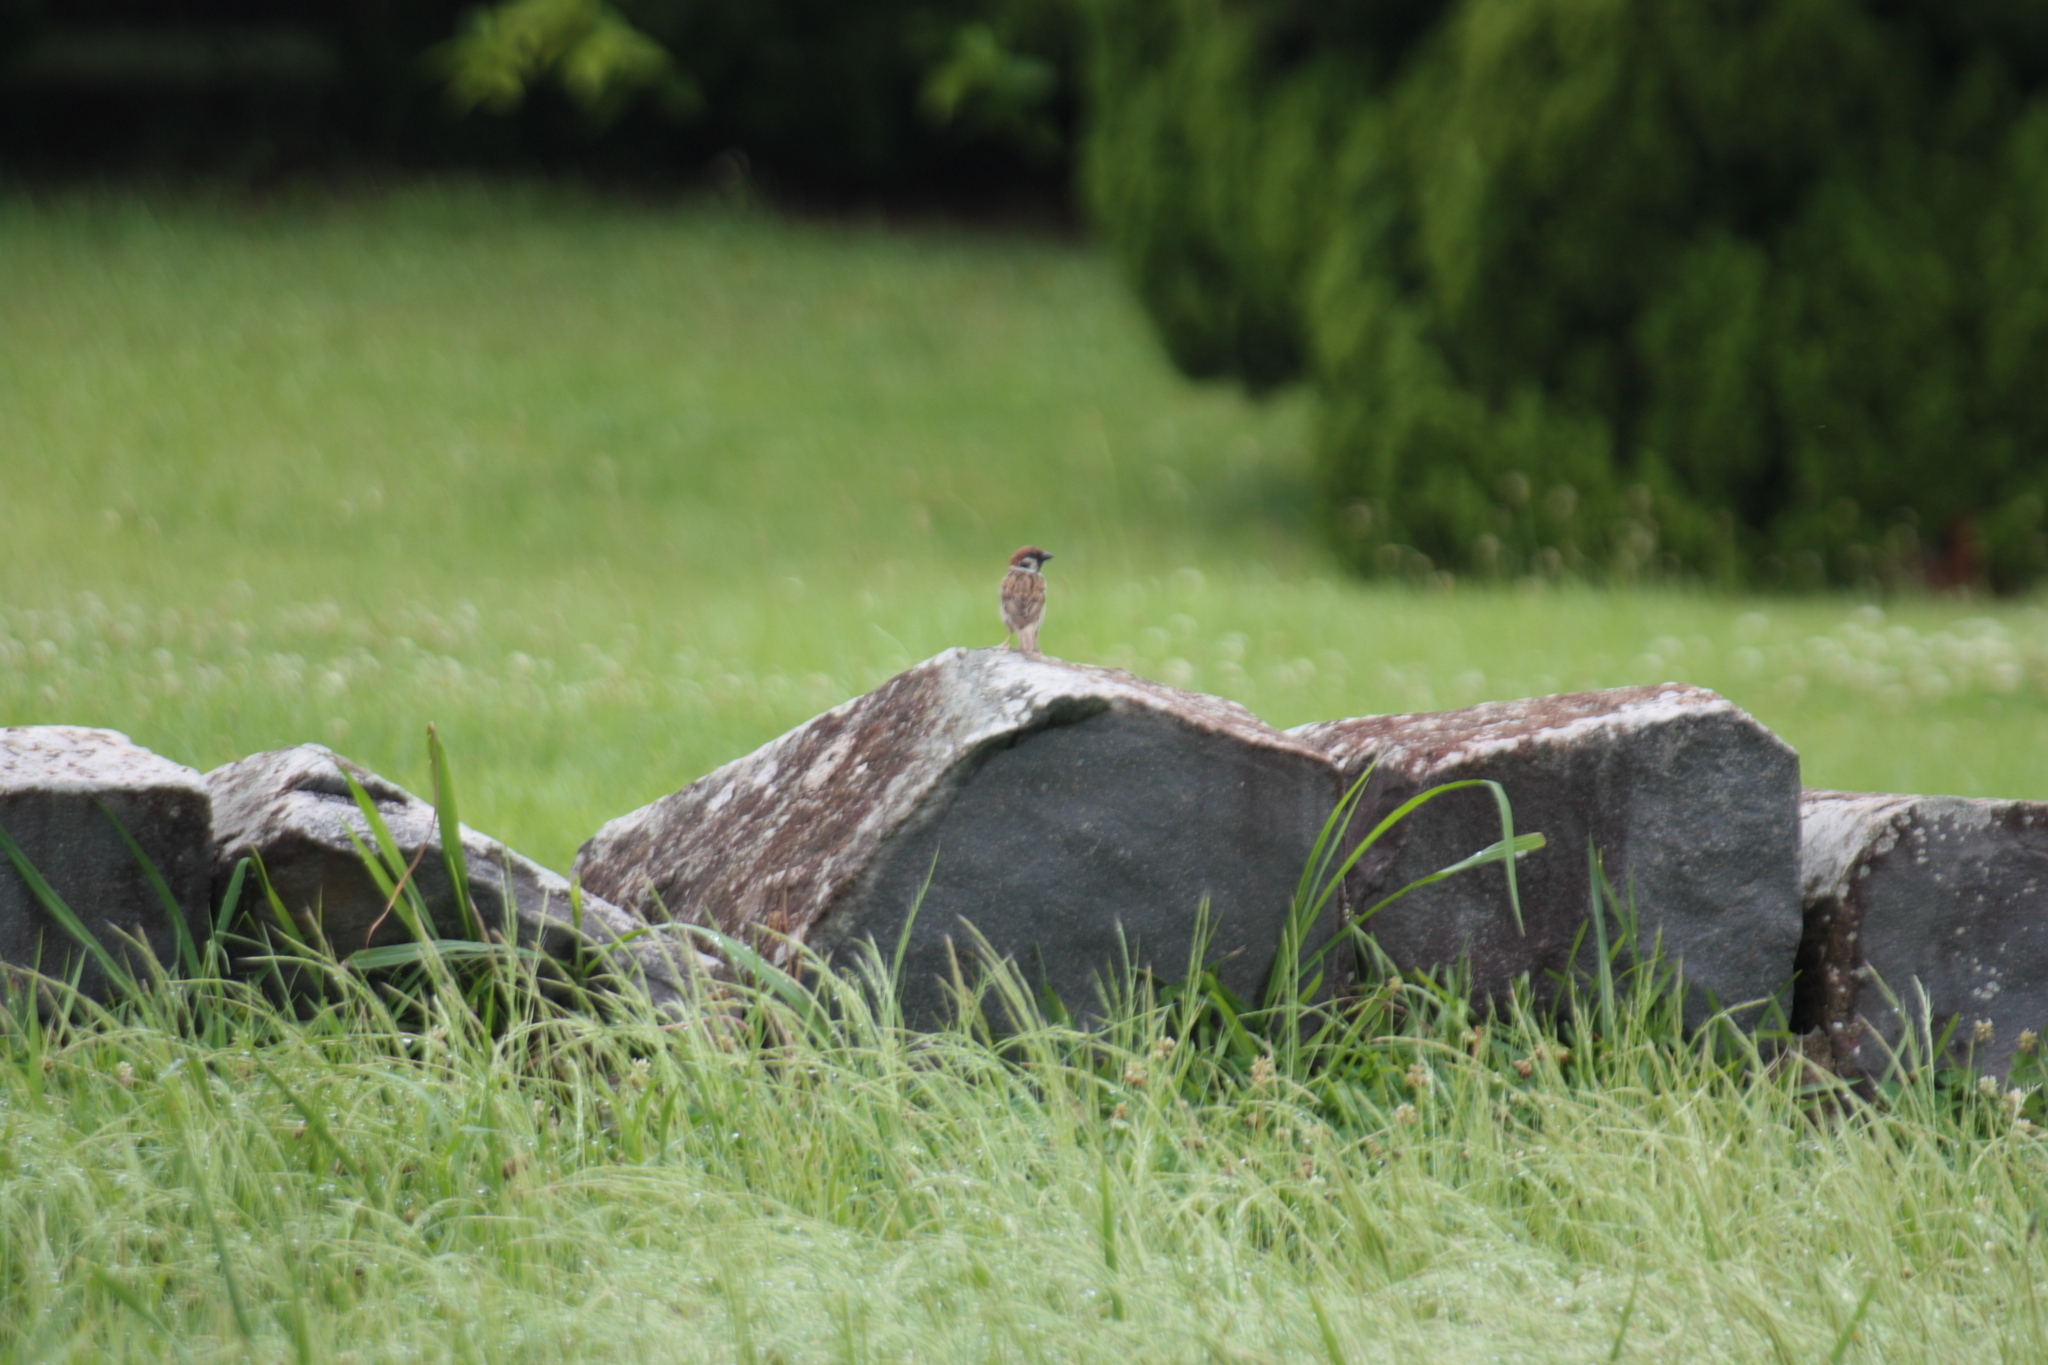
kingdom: Animalia
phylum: Chordata
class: Aves
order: Passeriformes
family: Passeridae
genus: Passer
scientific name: Passer montanus
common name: Eurasian tree sparrow
